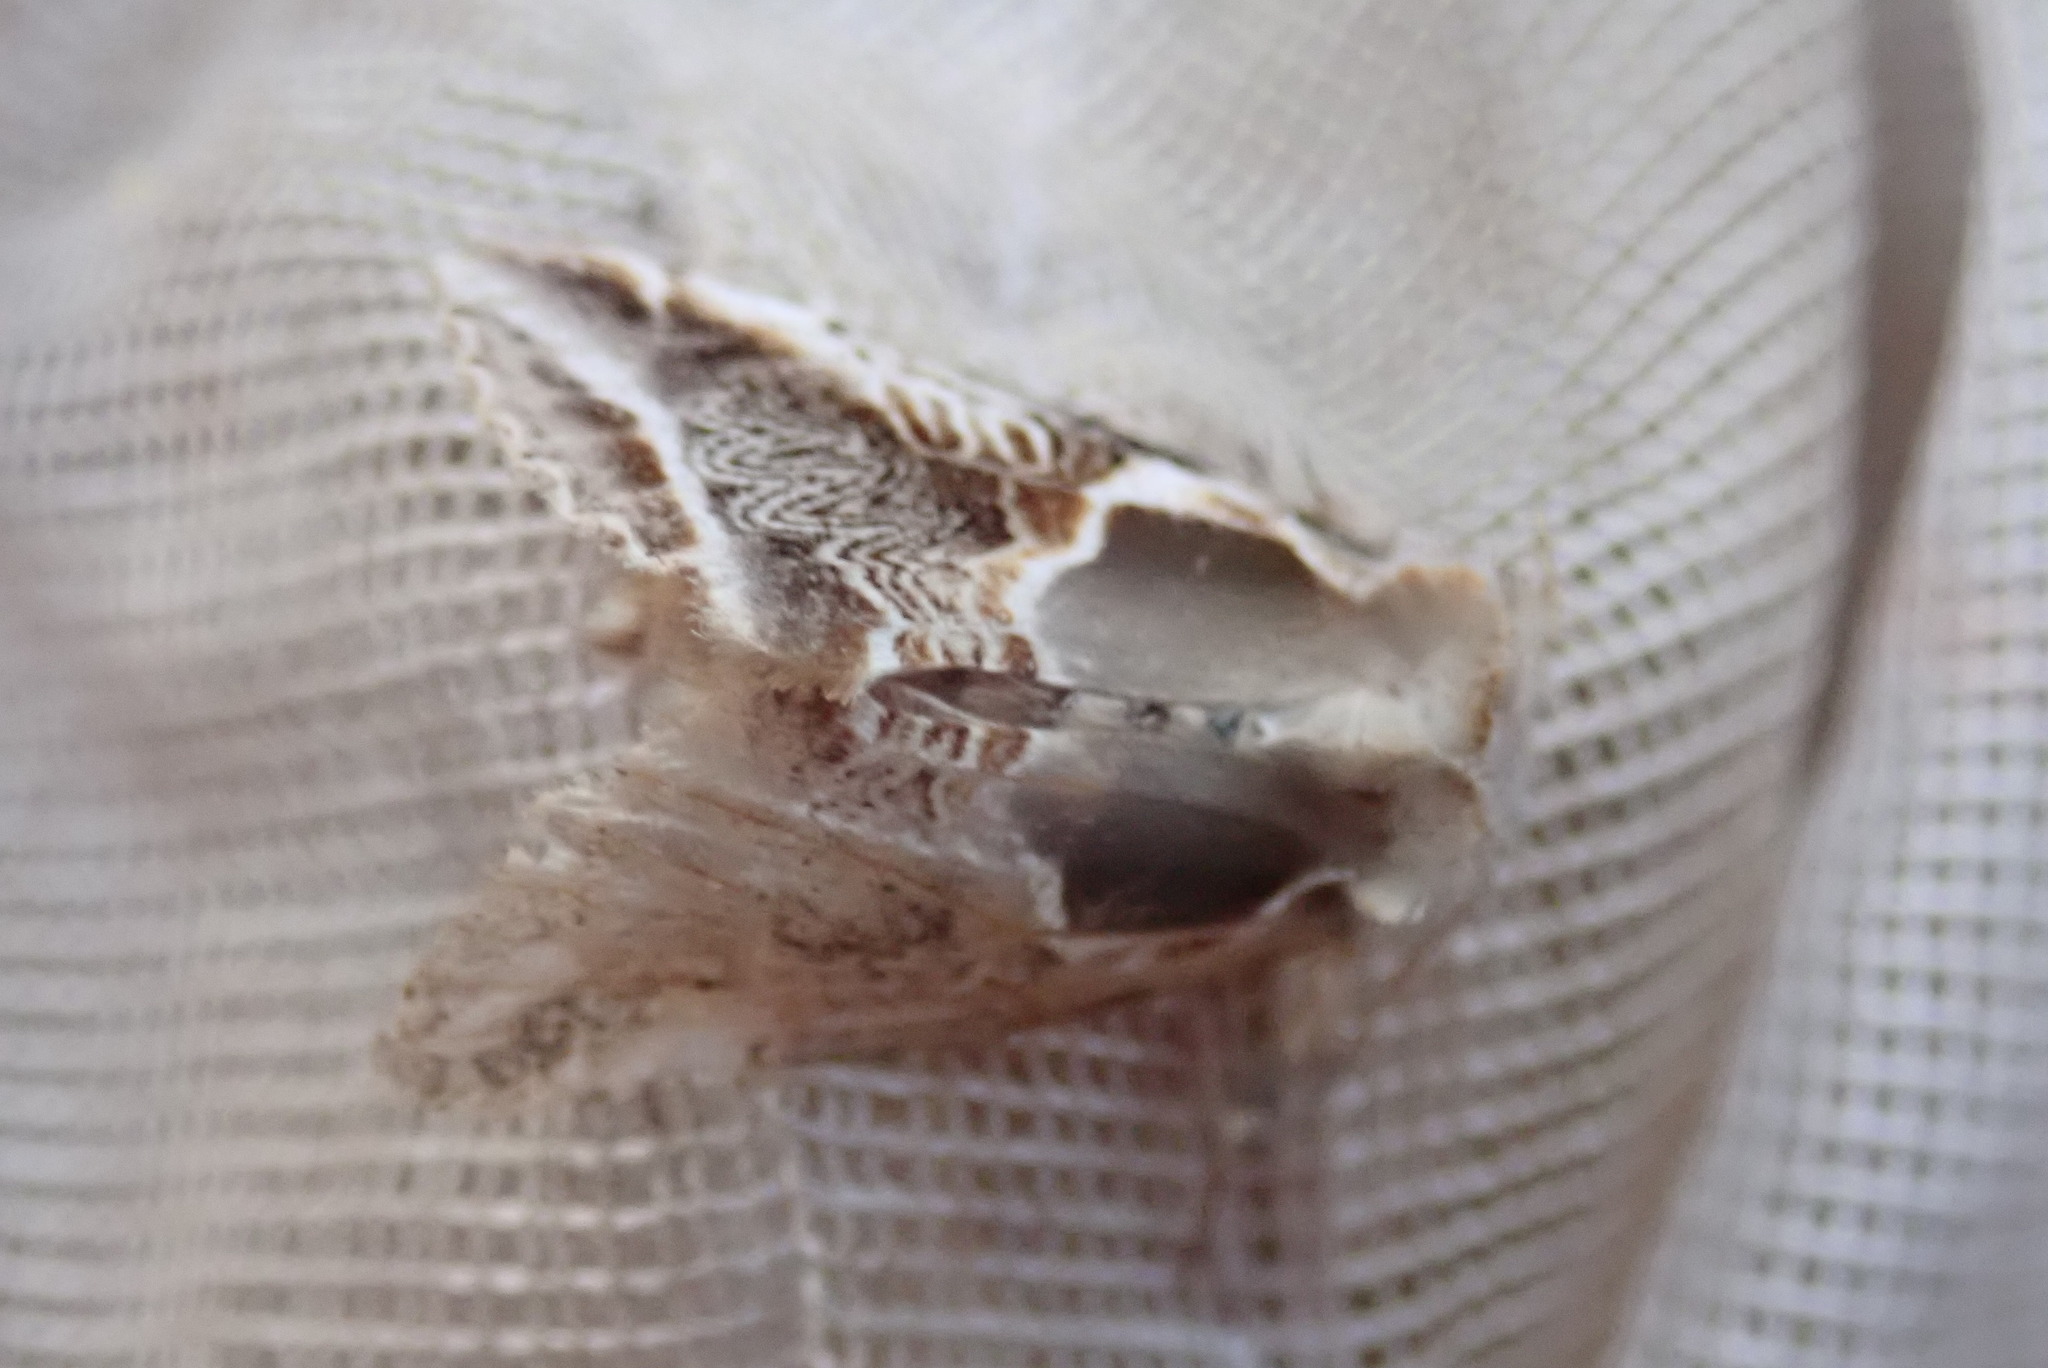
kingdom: Animalia
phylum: Arthropoda
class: Insecta
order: Lepidoptera
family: Drepanidae
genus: Habrosyne
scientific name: Habrosyne scripta
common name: Lettered habrosyne moth
